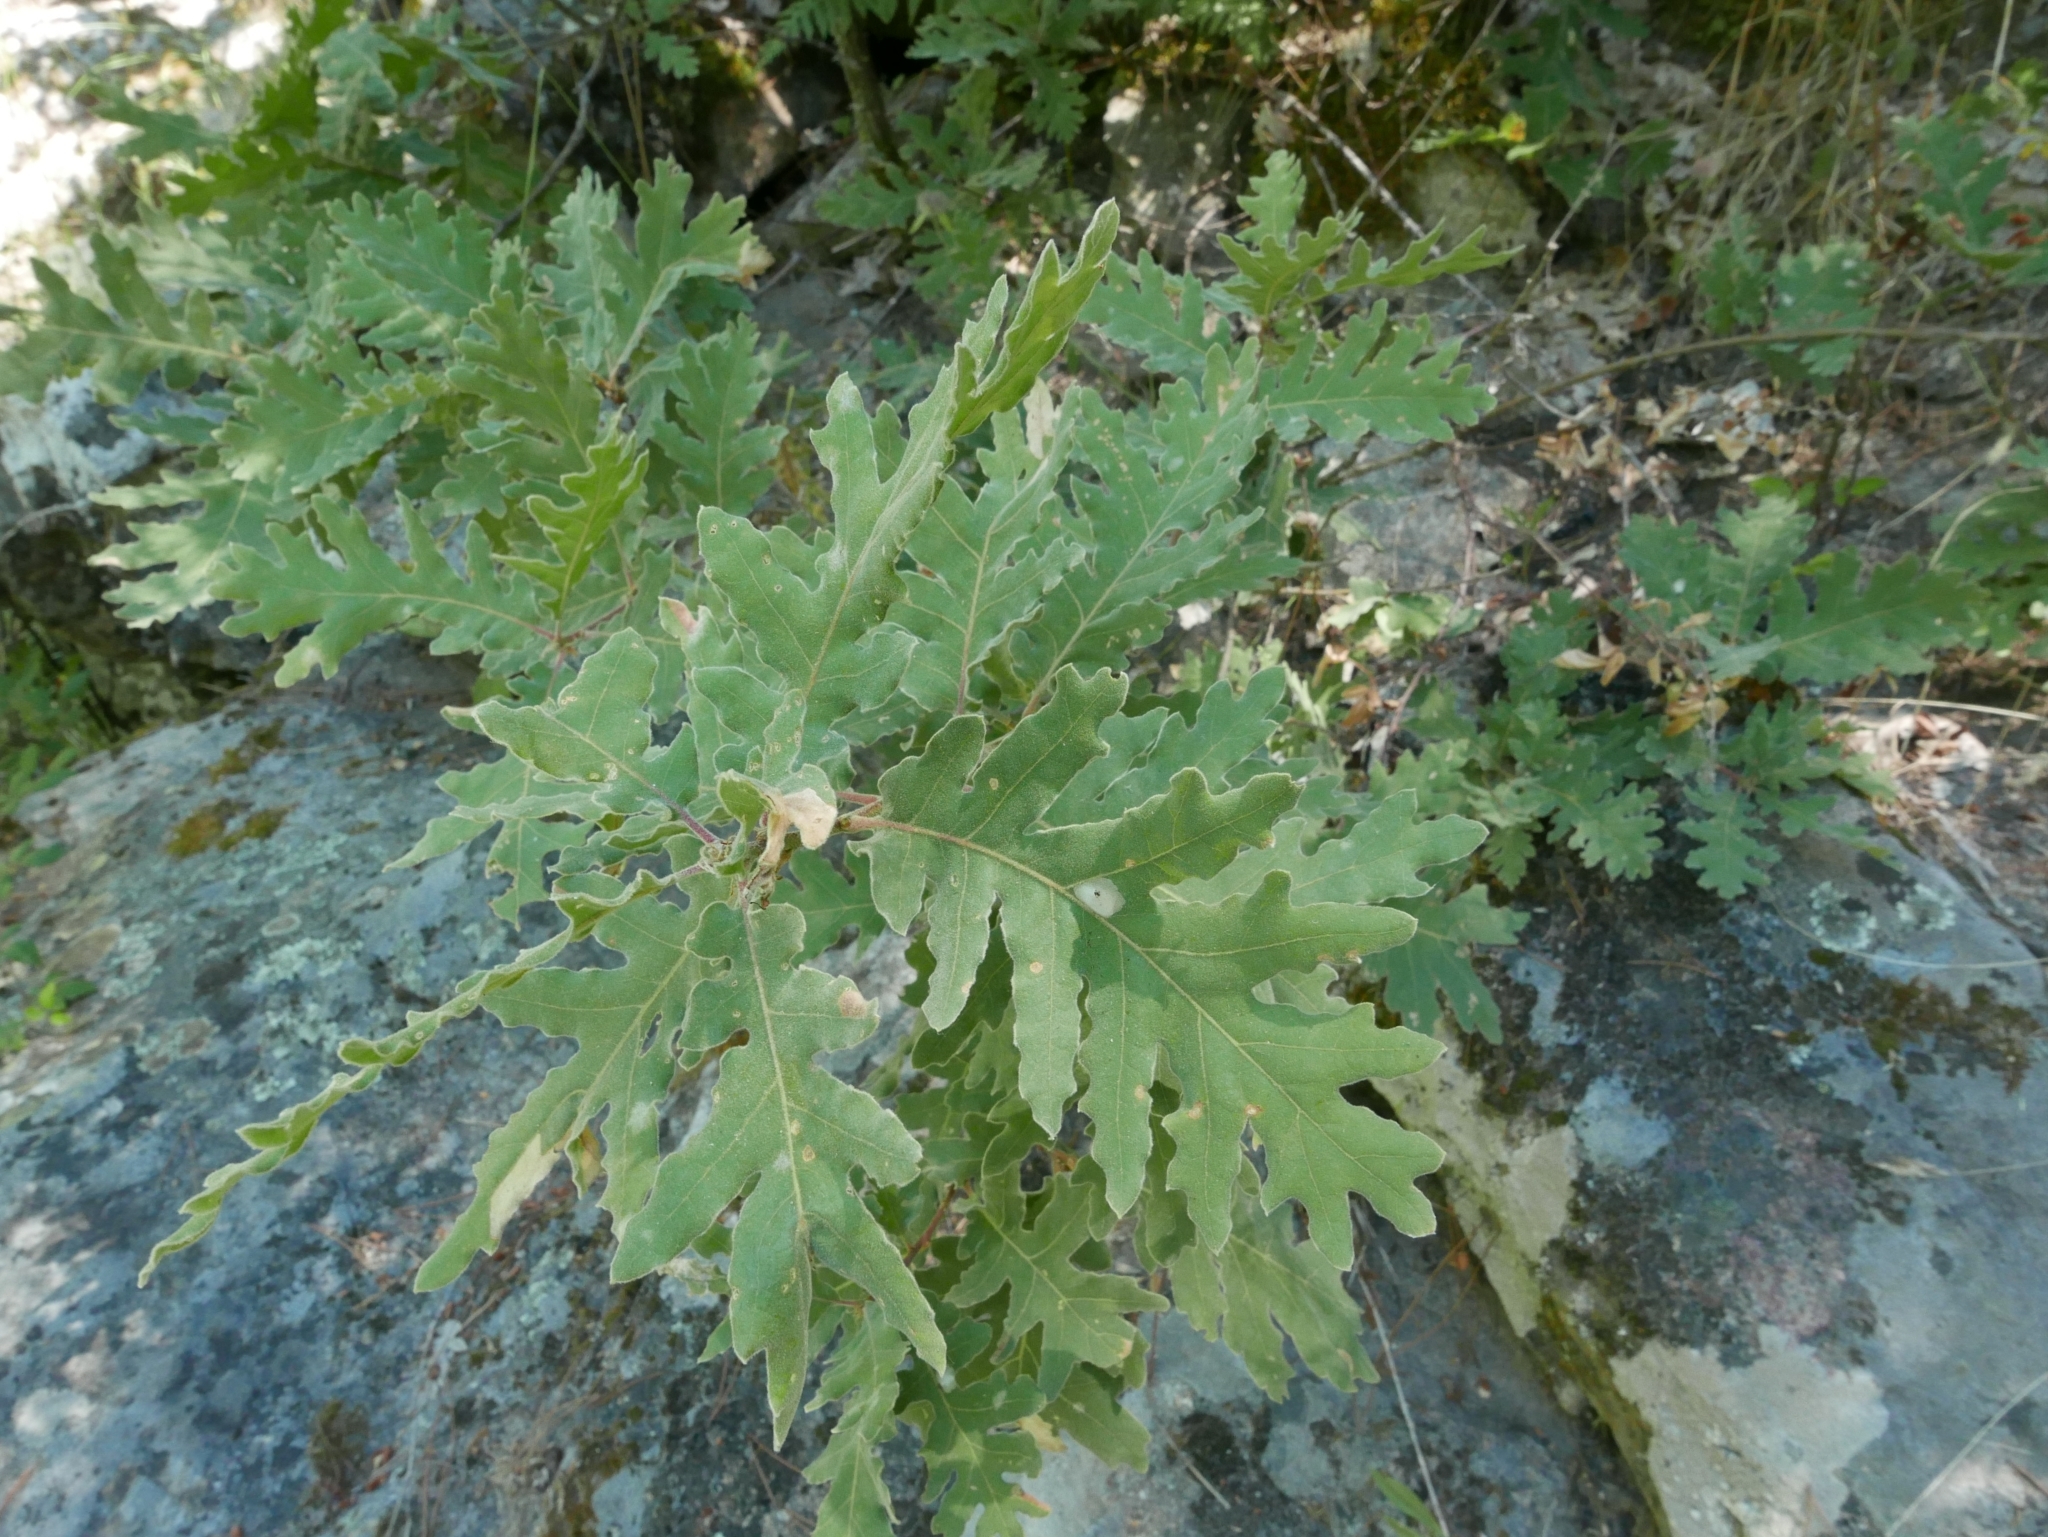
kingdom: Plantae
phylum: Tracheophyta
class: Magnoliopsida
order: Fagales
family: Fagaceae
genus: Quercus
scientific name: Quercus pyrenaica
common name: Pyrenean oak
